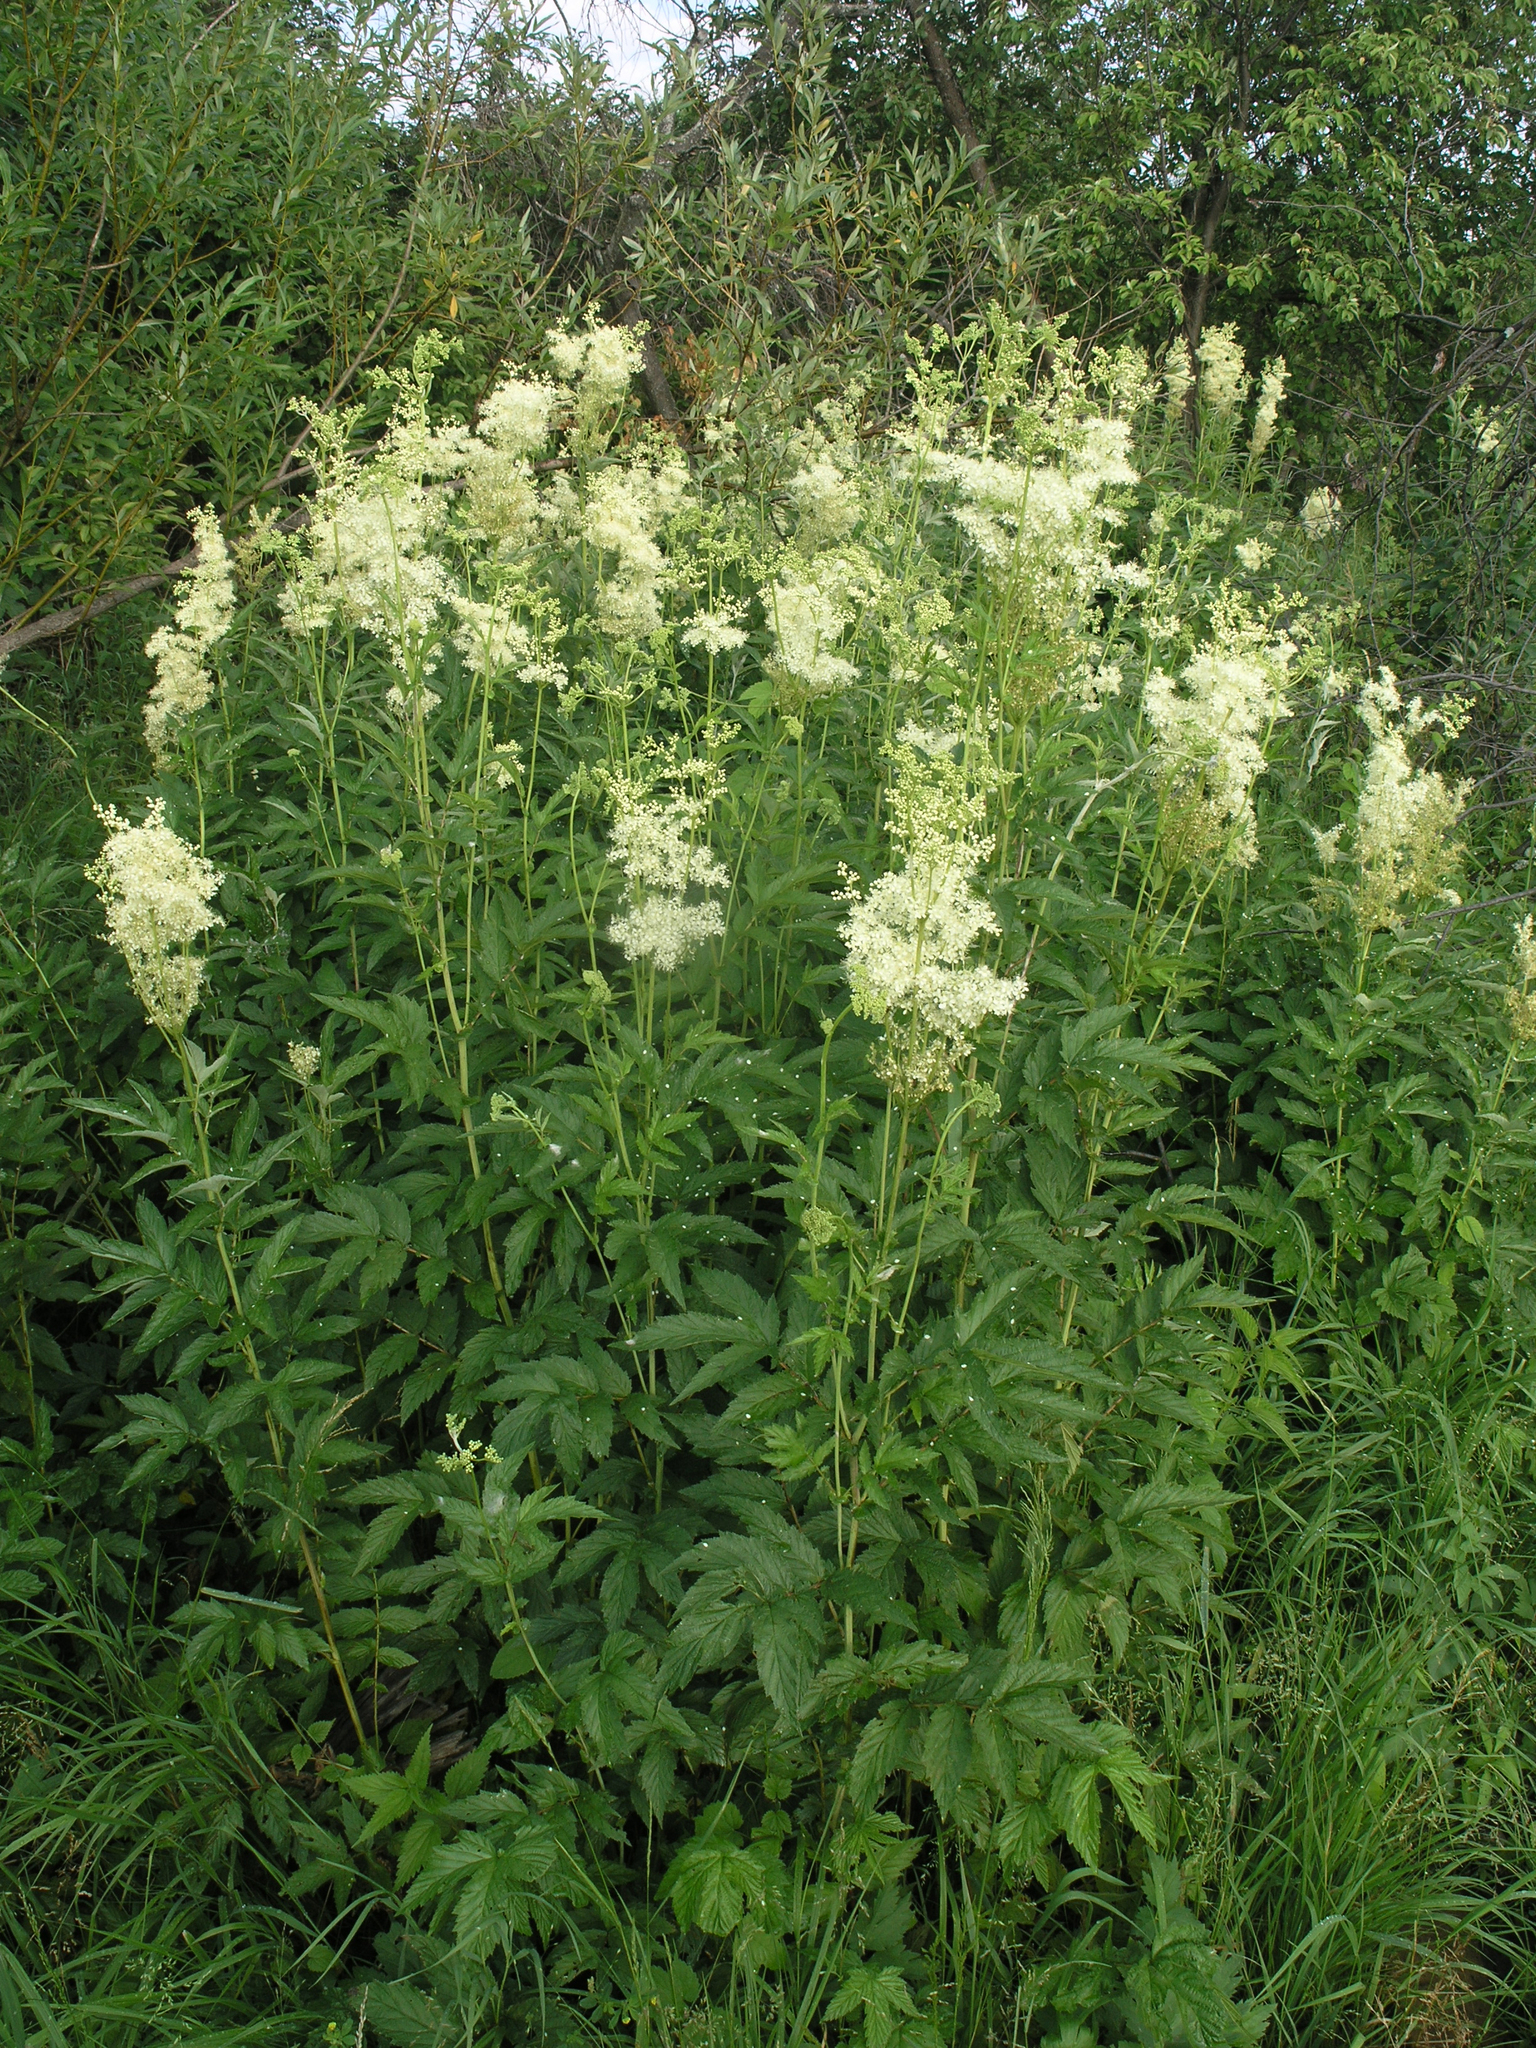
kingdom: Plantae
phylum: Tracheophyta
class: Magnoliopsida
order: Rosales
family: Rosaceae
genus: Filipendula
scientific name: Filipendula ulmaria
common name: Meadowsweet
